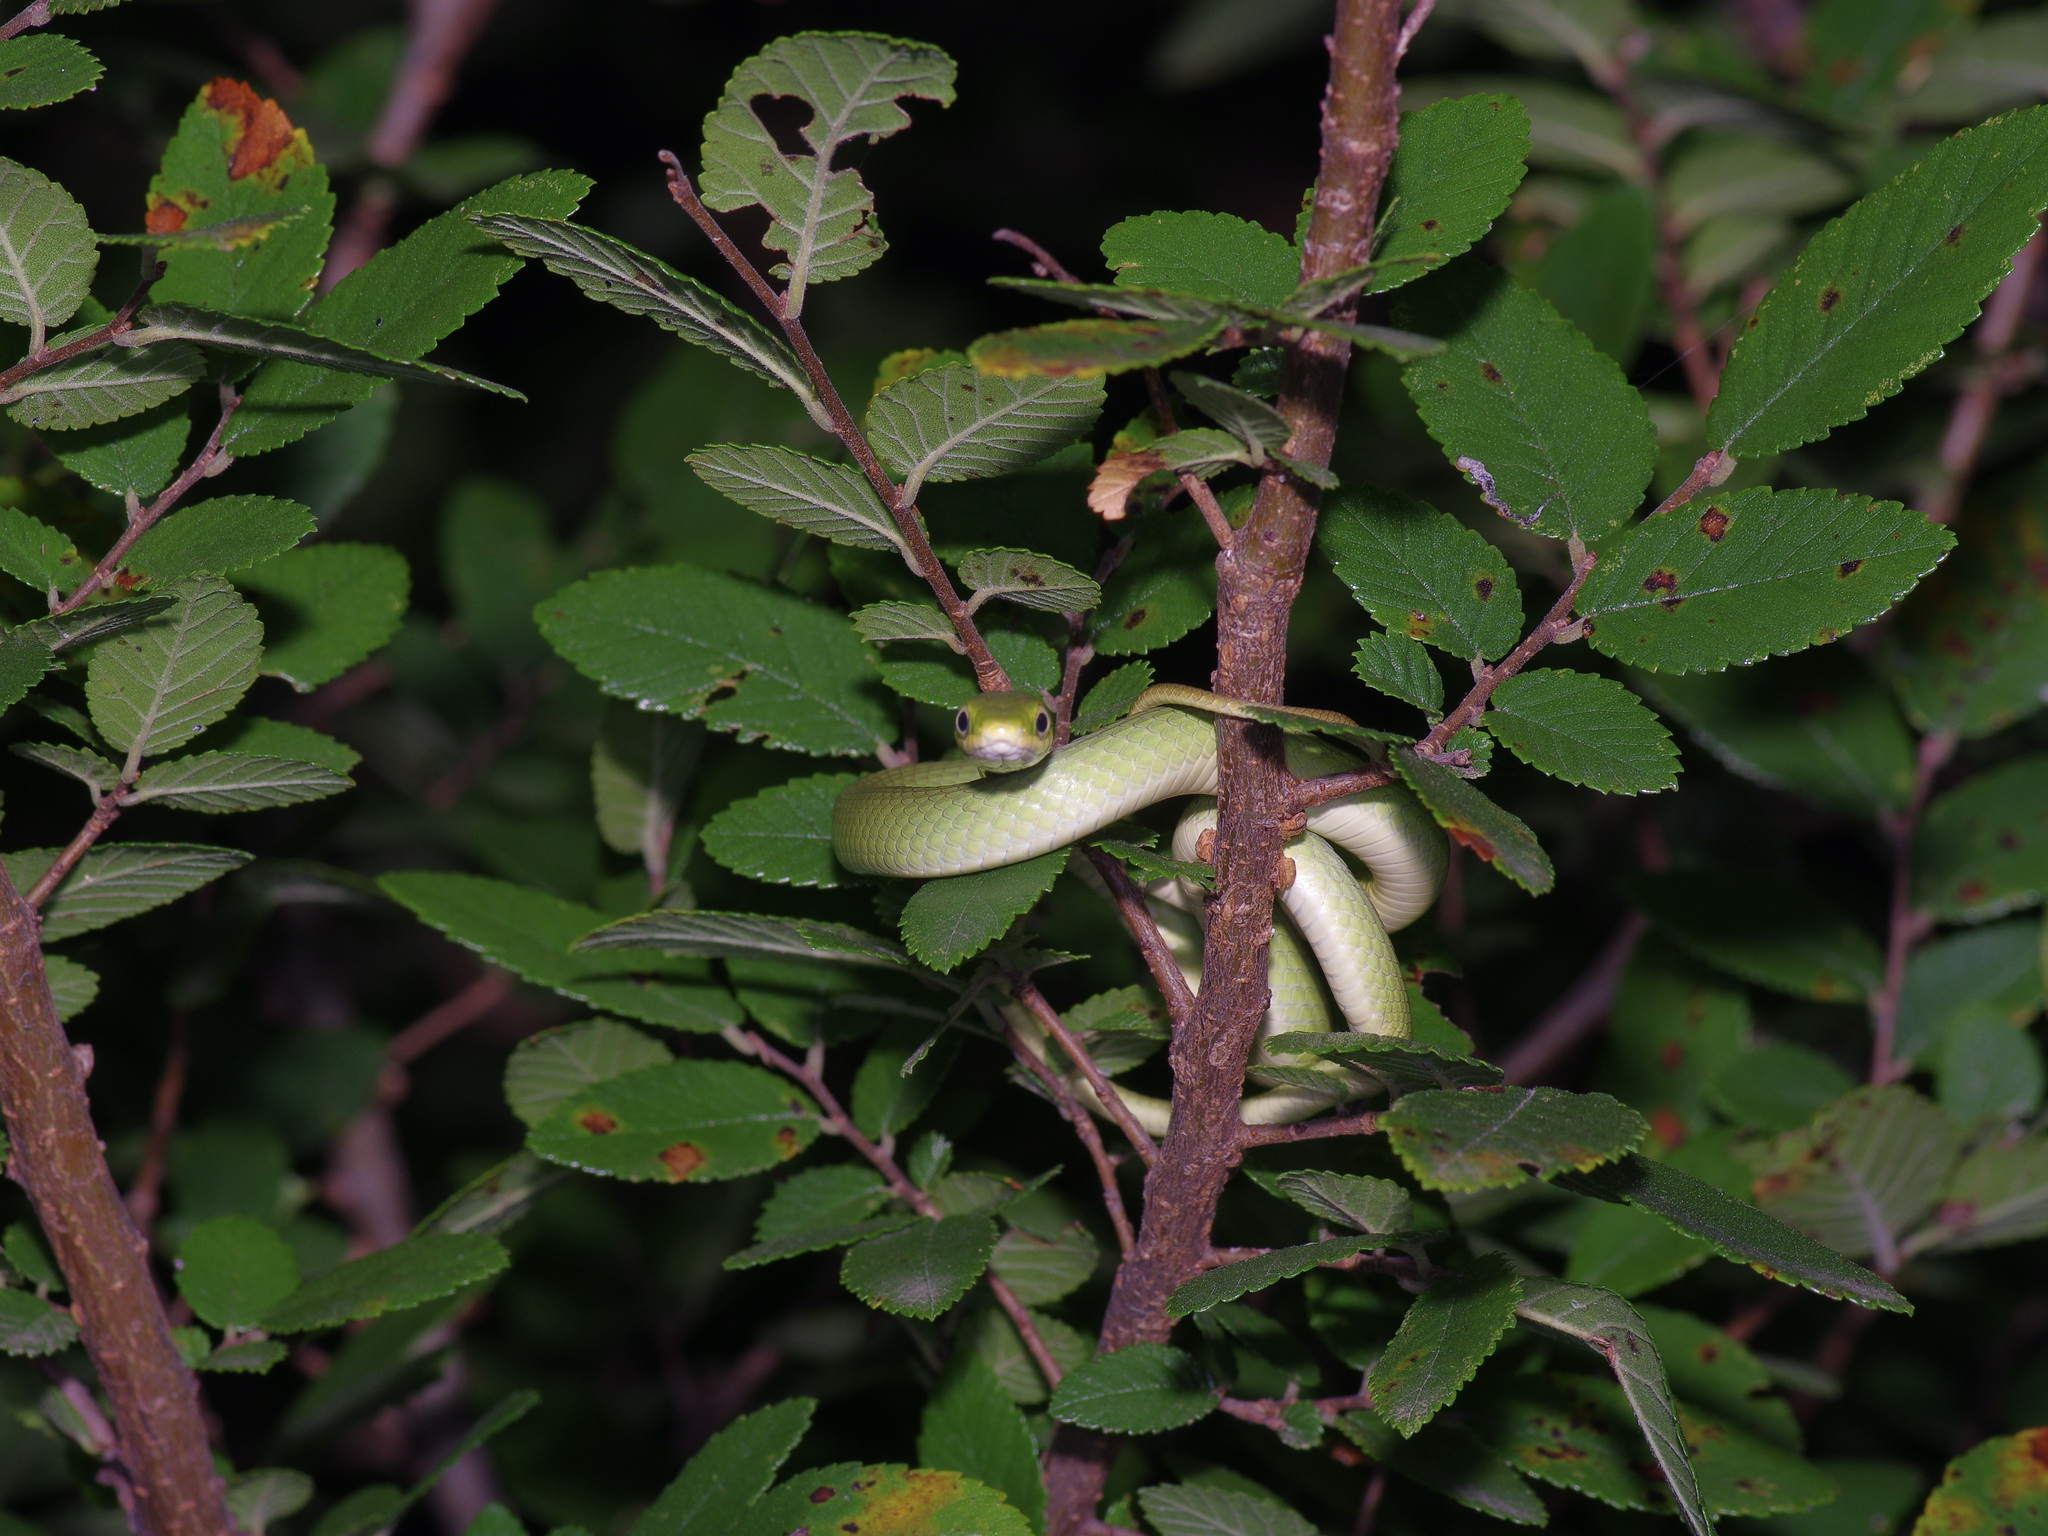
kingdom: Animalia
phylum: Chordata
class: Squamata
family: Colubridae
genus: Opheodrys
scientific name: Opheodrys aestivus
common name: Rough greensnake
